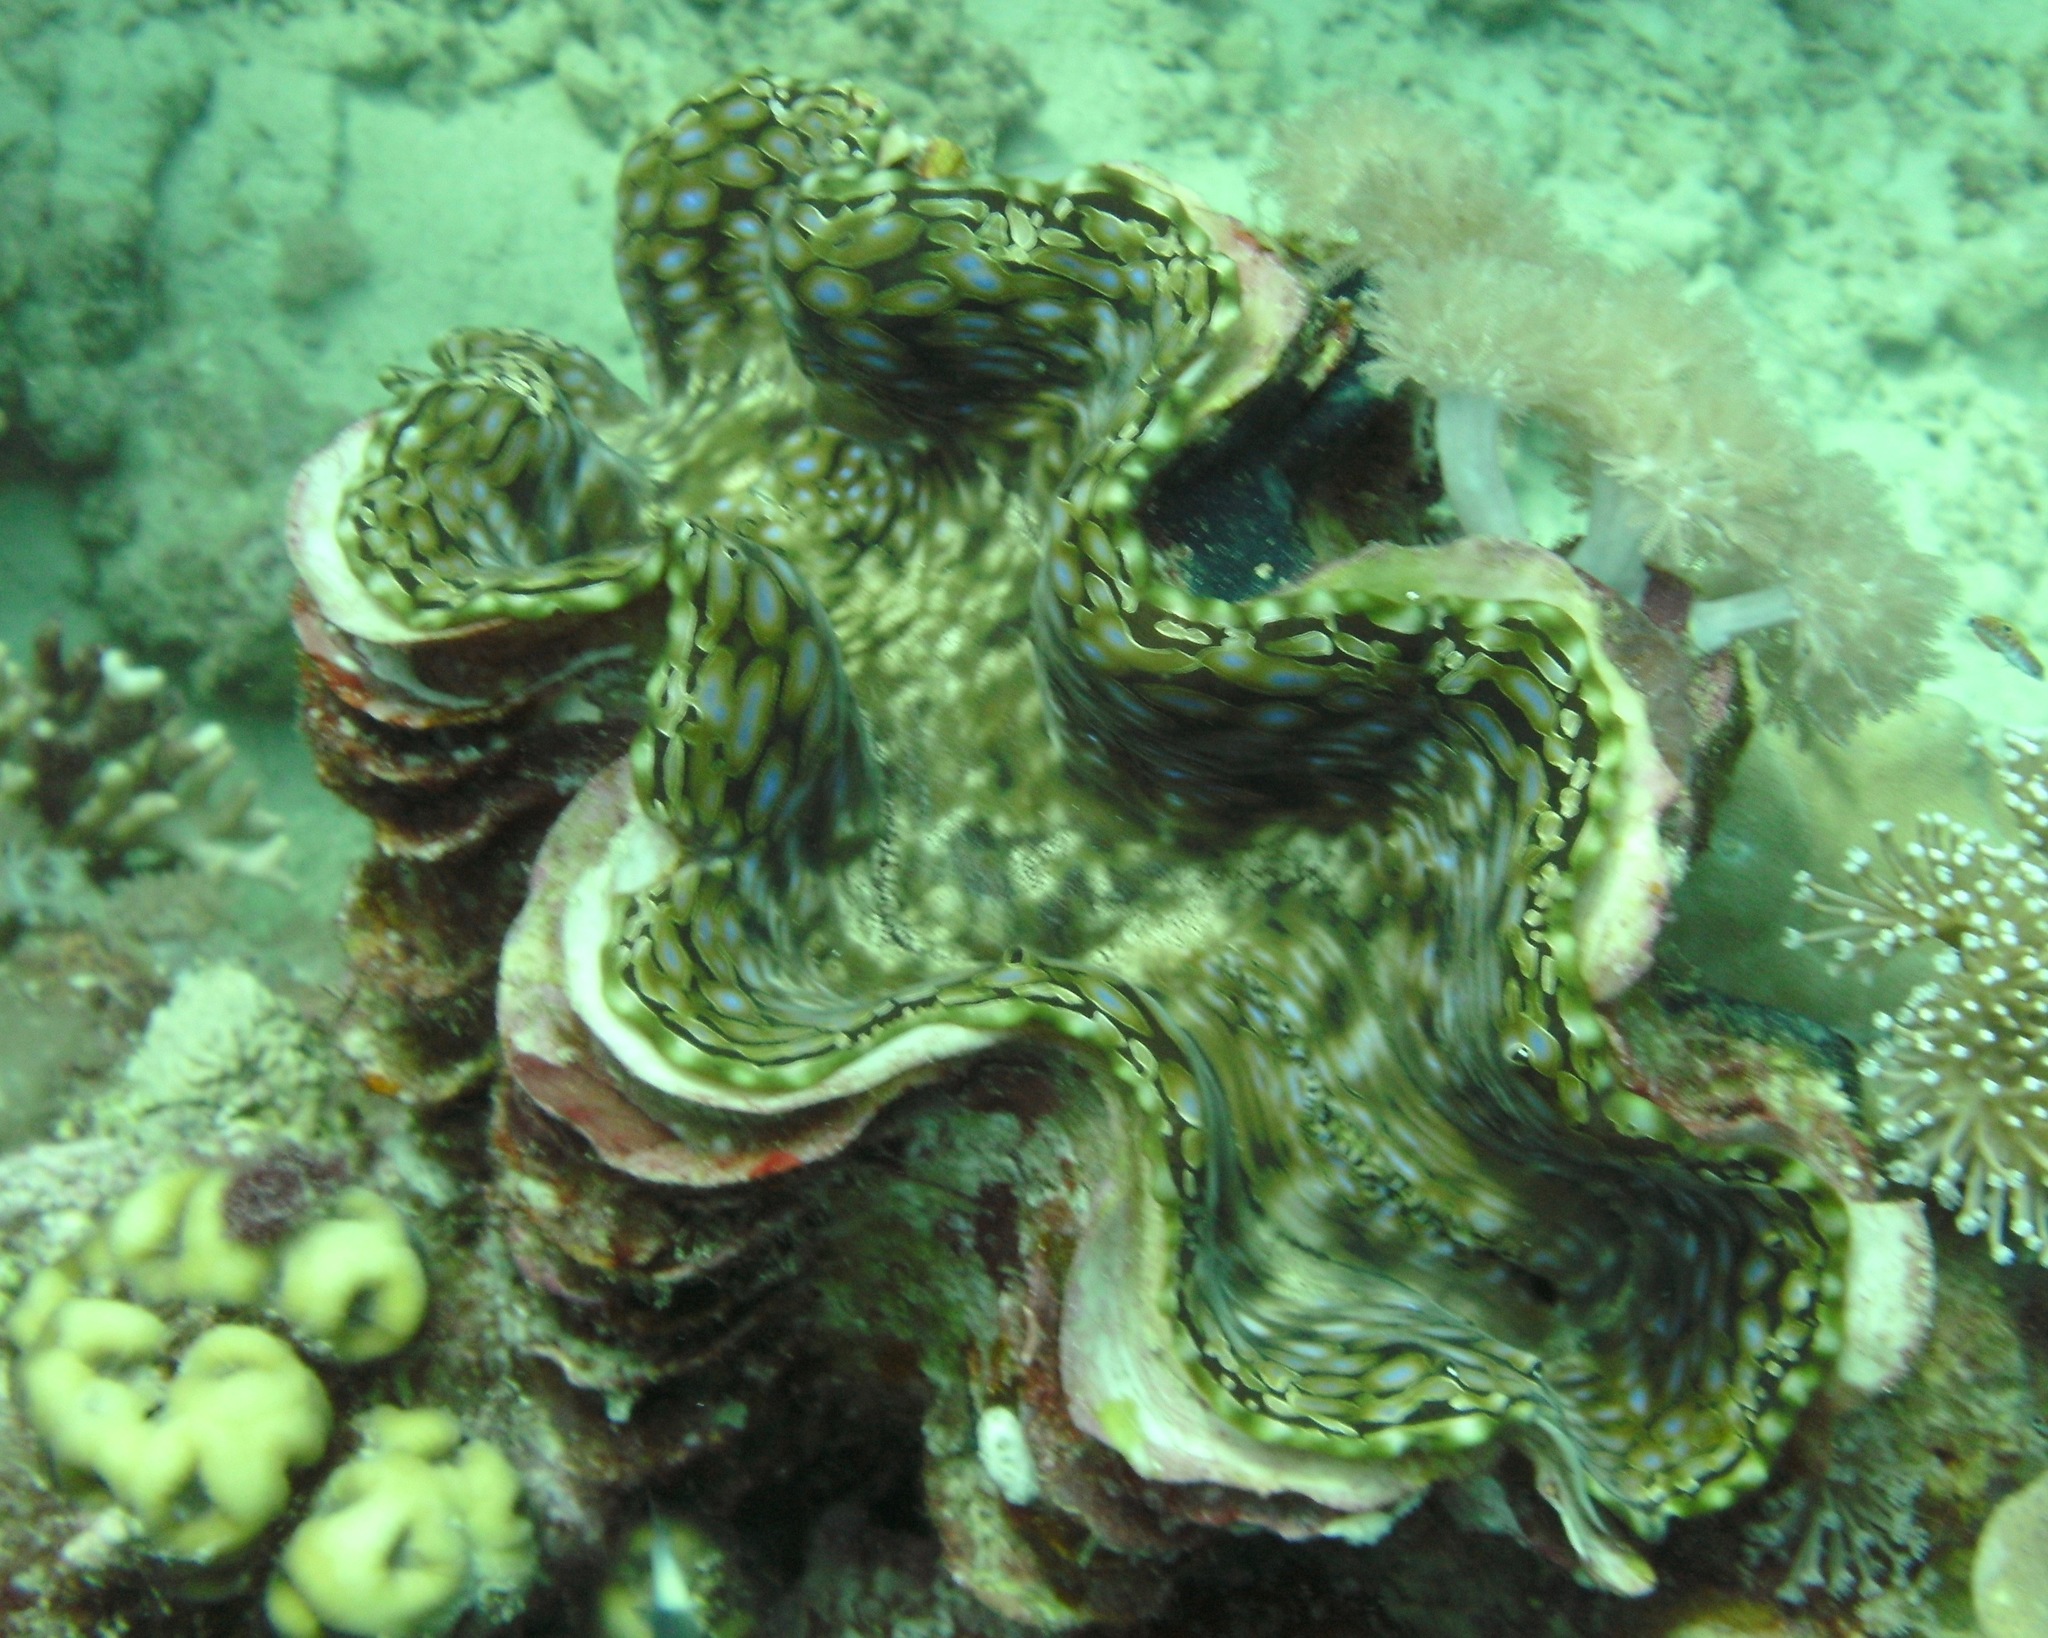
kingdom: Animalia
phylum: Mollusca
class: Bivalvia
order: Cardiida
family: Cardiidae
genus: Tridacna
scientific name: Tridacna squamosa
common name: Fluted clam
